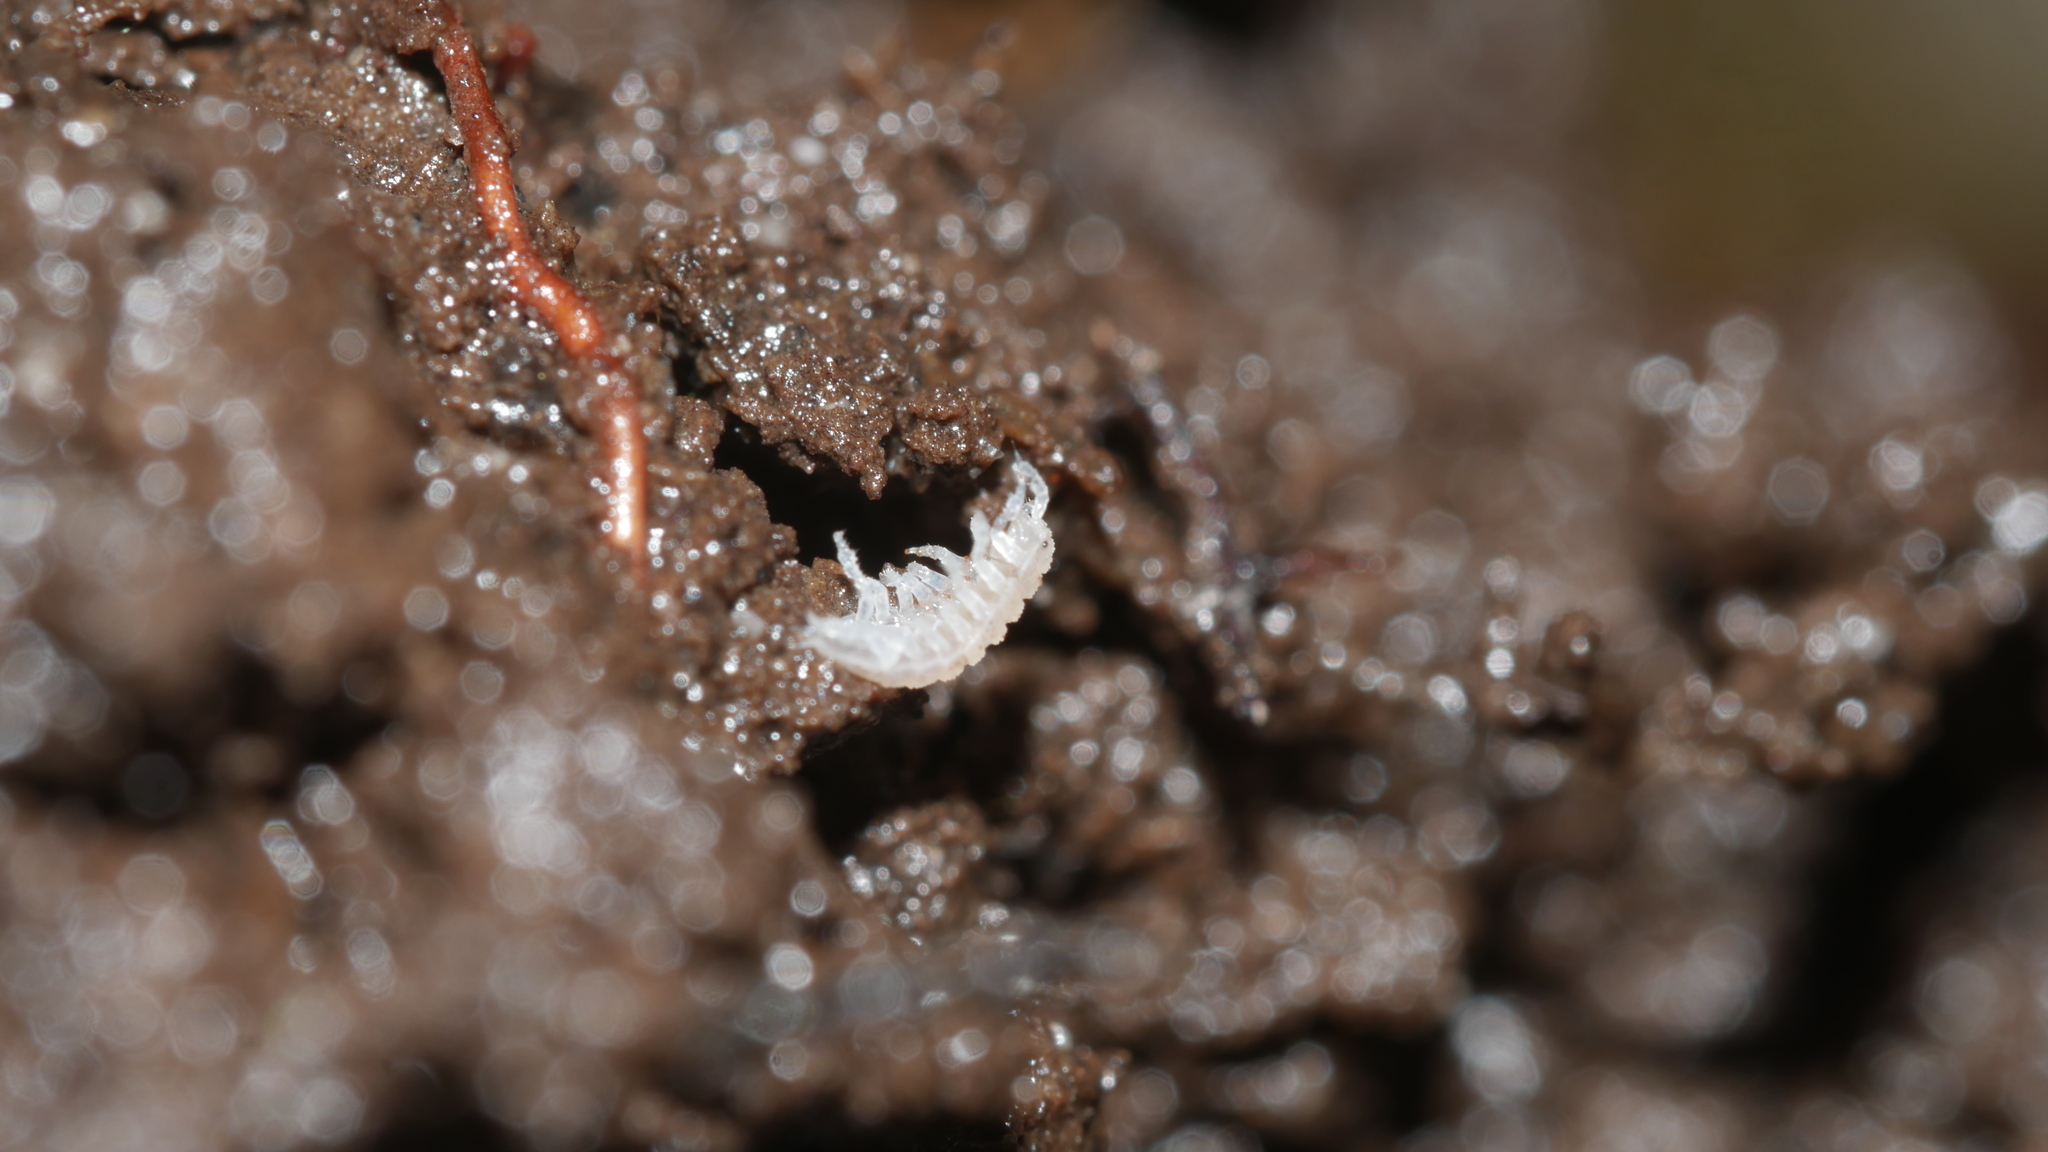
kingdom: Animalia
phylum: Arthropoda
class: Malacostraca
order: Isopoda
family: Trichoniscidae
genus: Haplophthalmus
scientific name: Haplophthalmus danicus
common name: Pillbug
